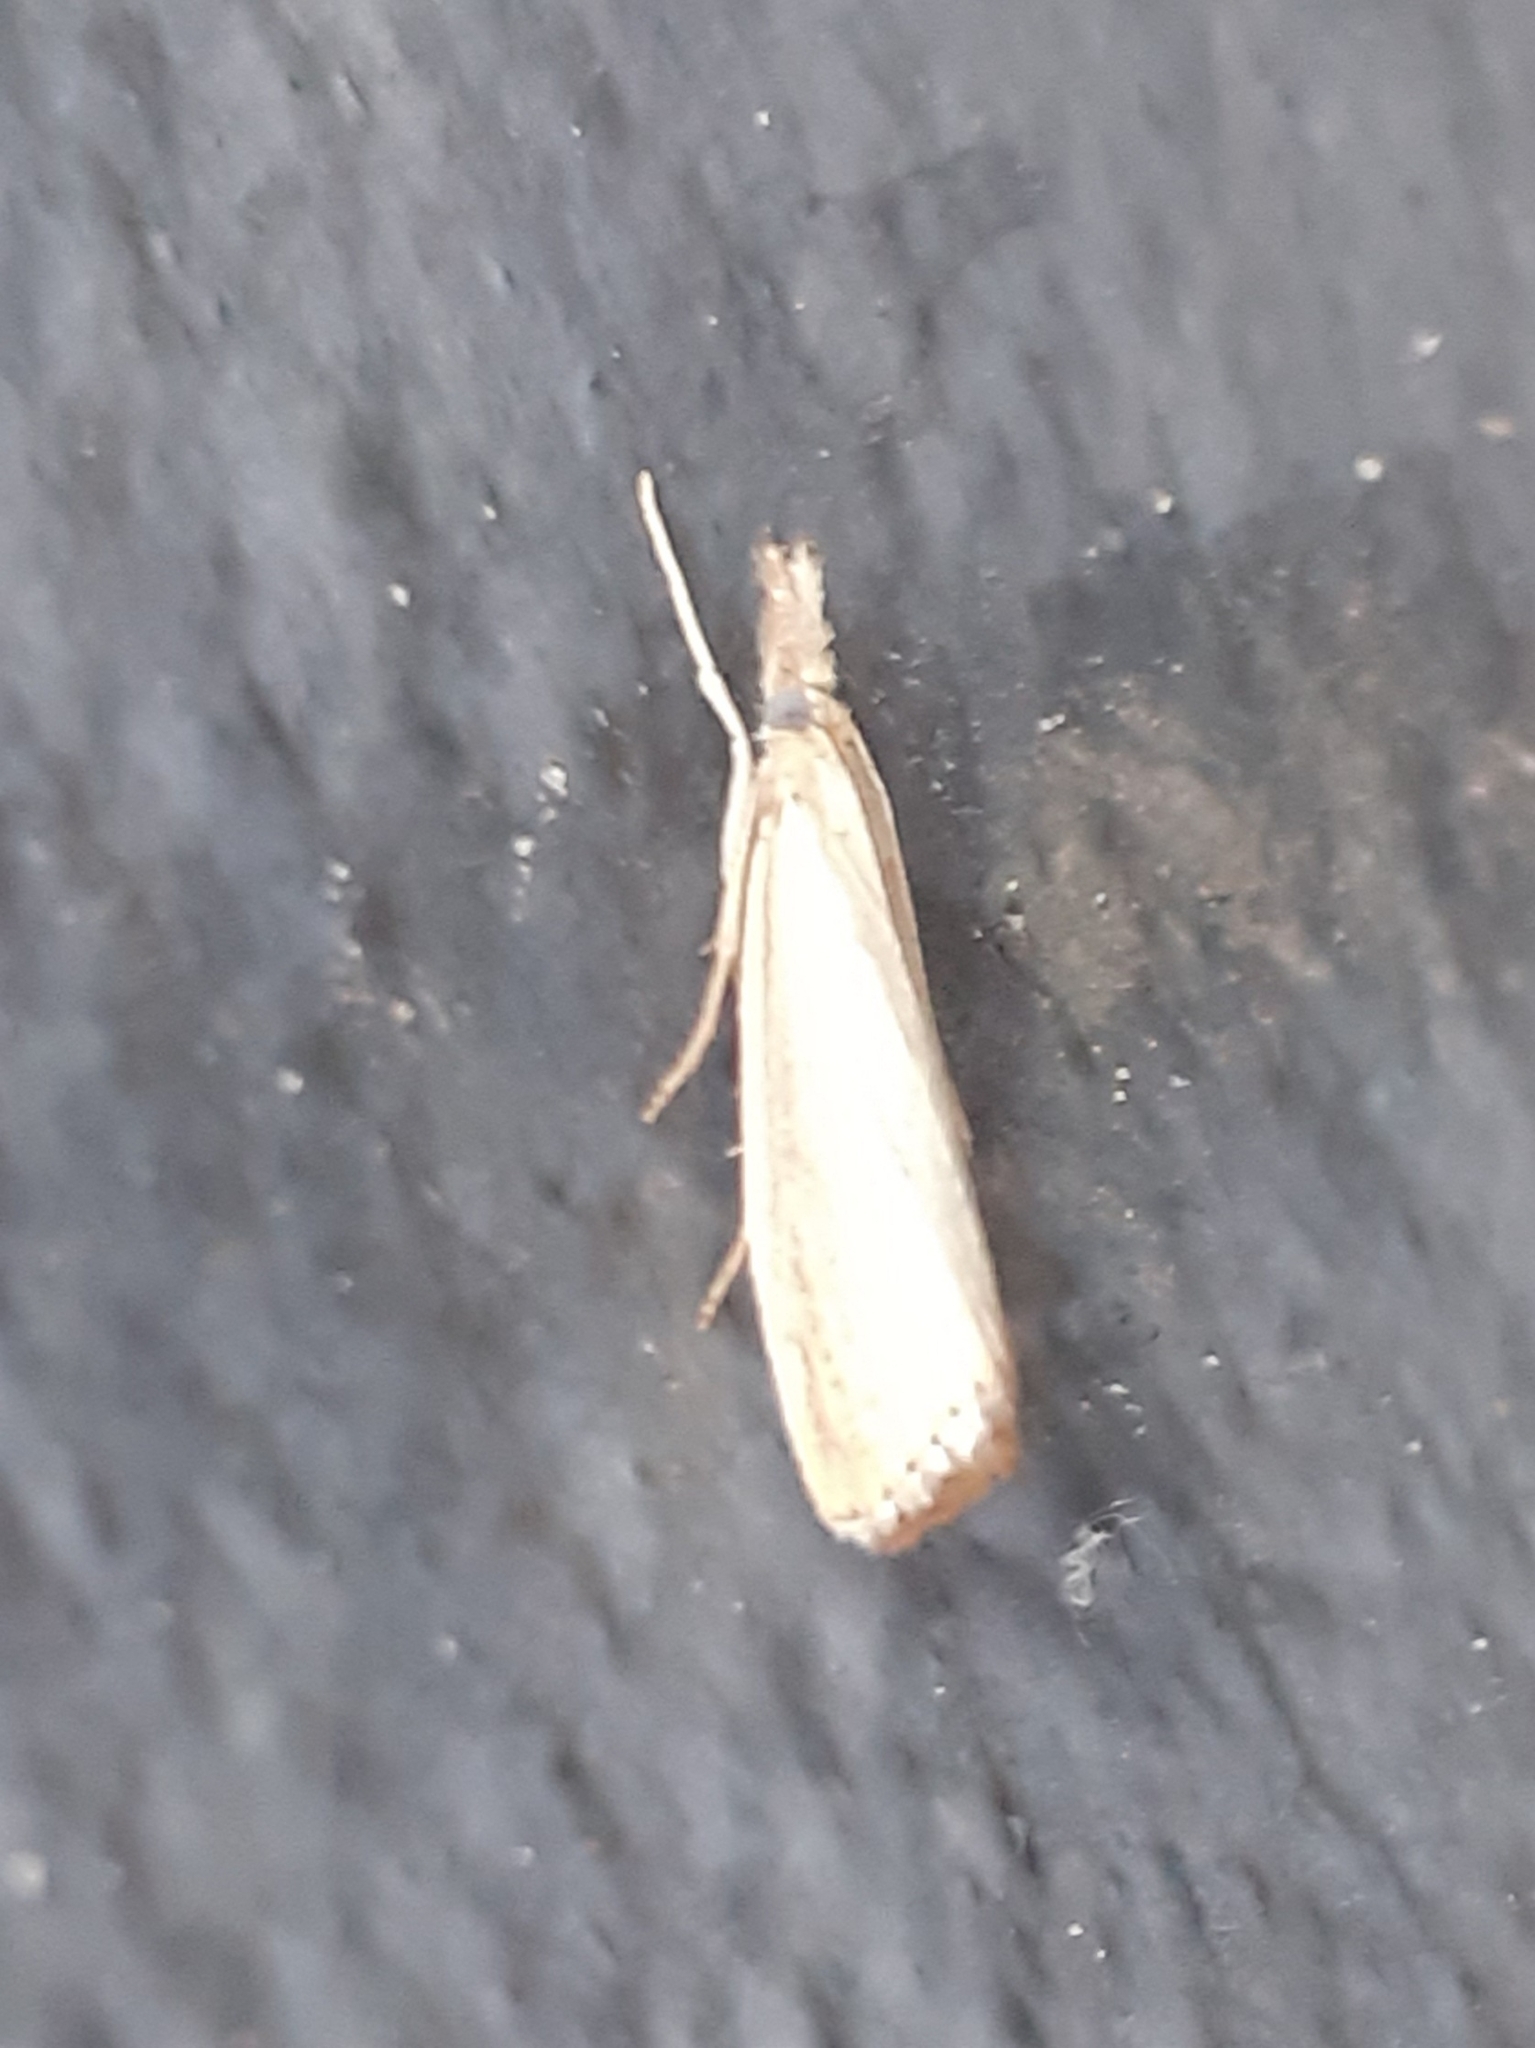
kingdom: Animalia
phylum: Arthropoda
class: Insecta
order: Lepidoptera
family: Crambidae
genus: Agriphila
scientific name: Agriphila straminella
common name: Straw grass-veneer
